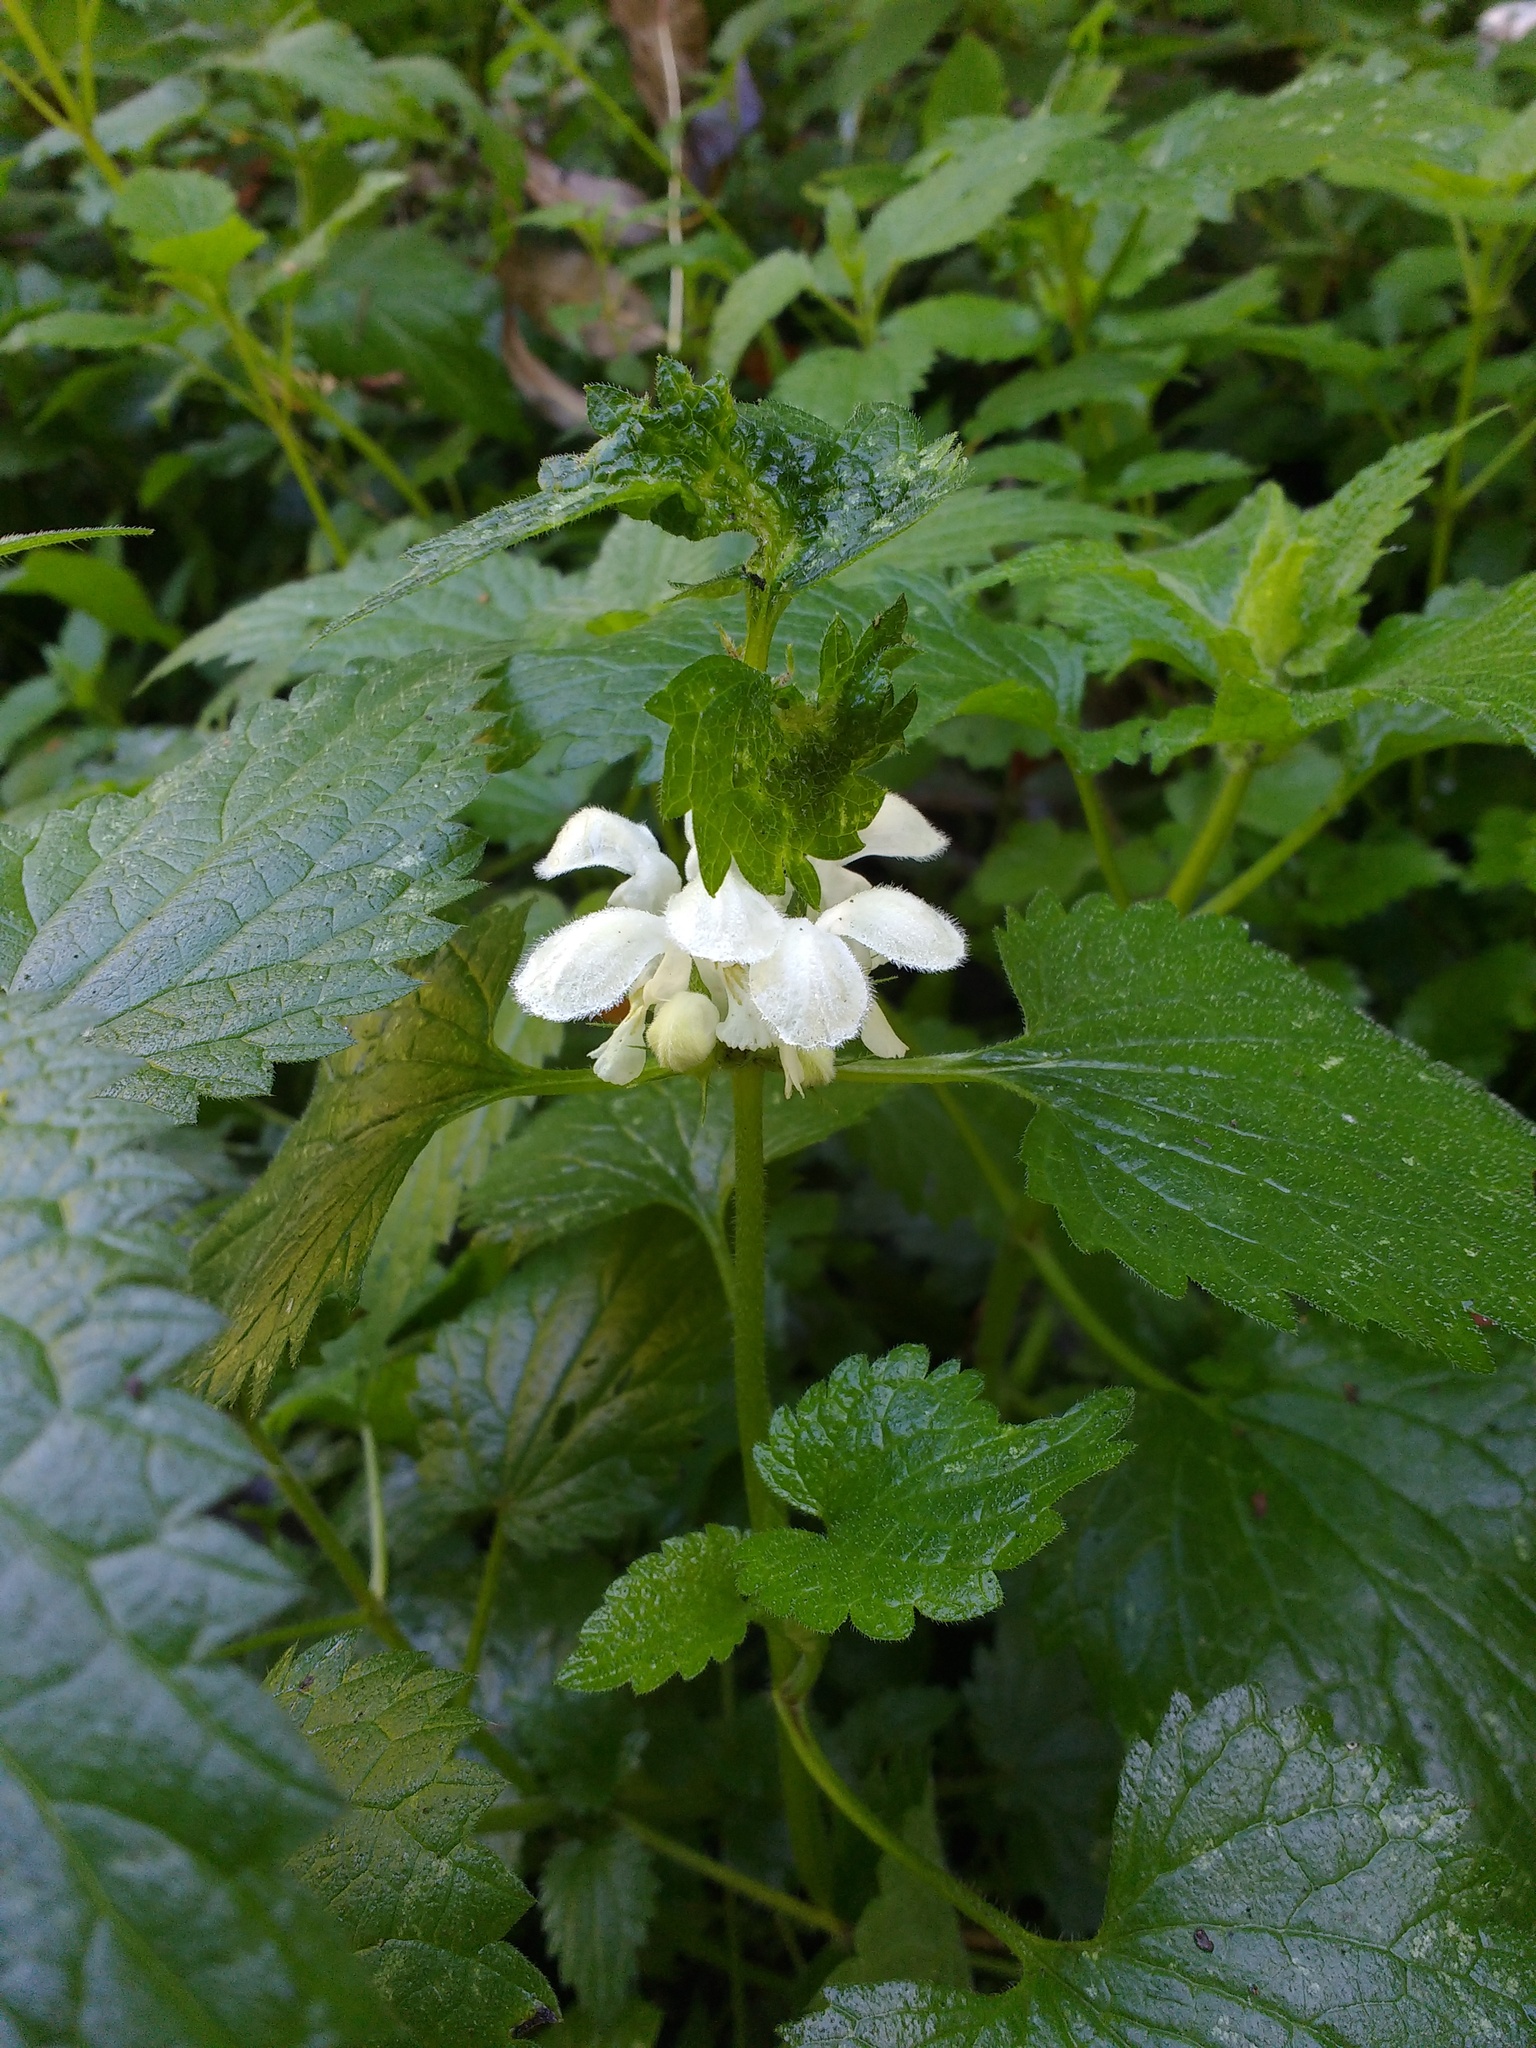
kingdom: Plantae
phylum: Tracheophyta
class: Magnoliopsida
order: Lamiales
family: Lamiaceae
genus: Lamium
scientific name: Lamium album
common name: White dead-nettle
